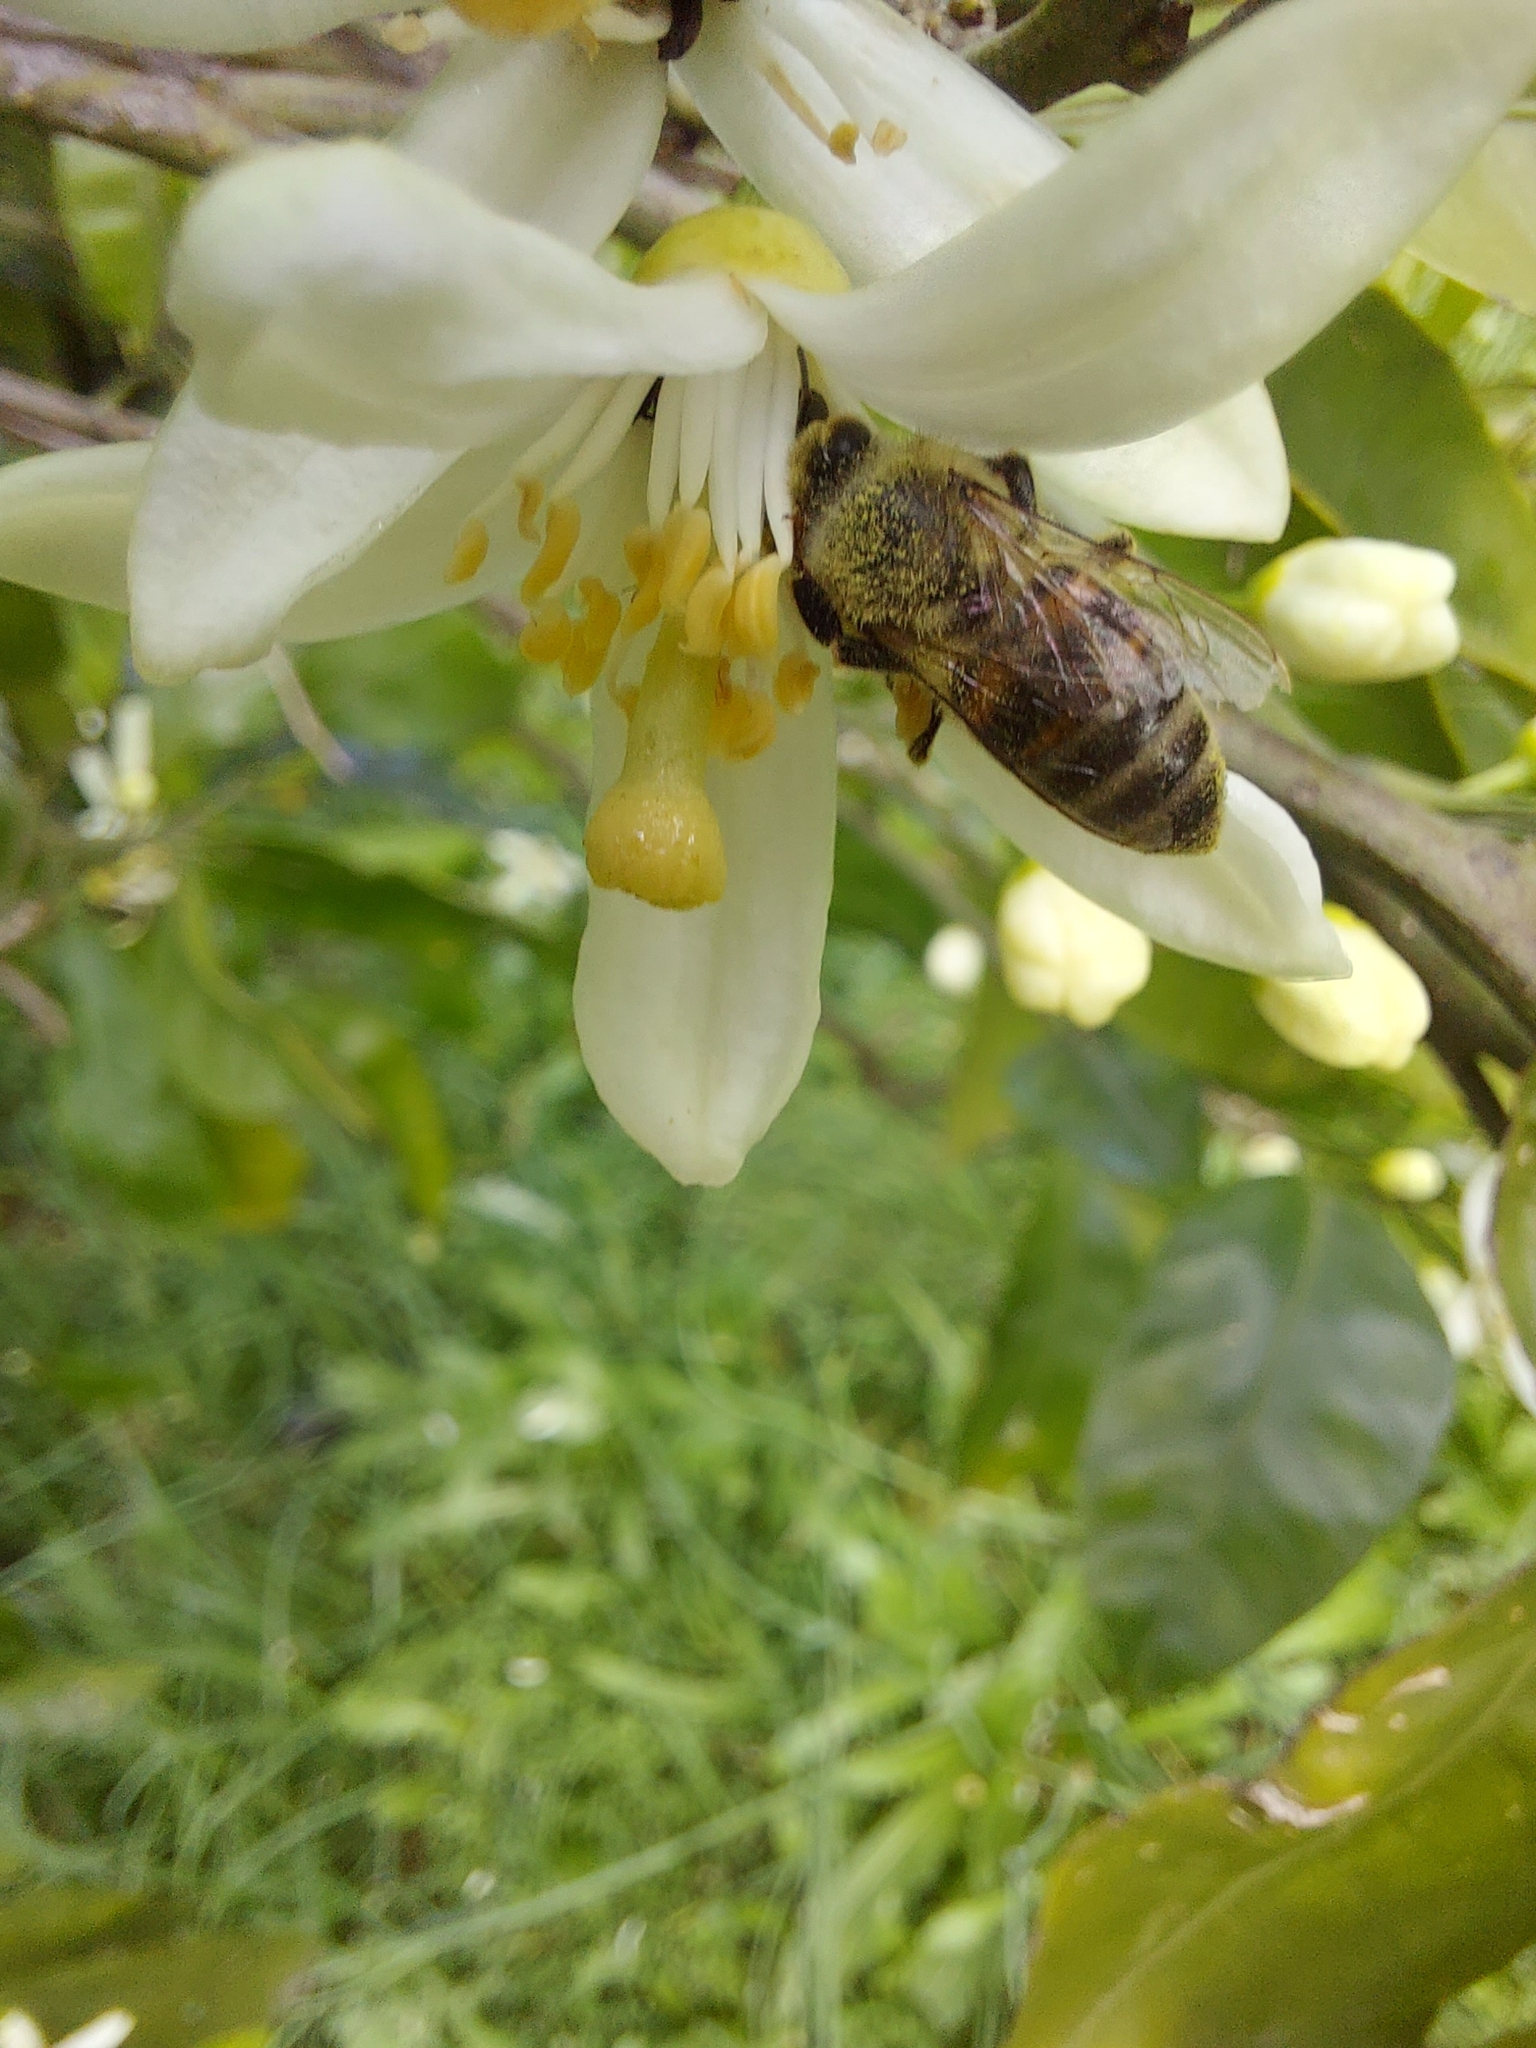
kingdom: Animalia
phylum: Arthropoda
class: Insecta
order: Hymenoptera
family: Apidae
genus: Apis
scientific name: Apis mellifera
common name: Honey bee
